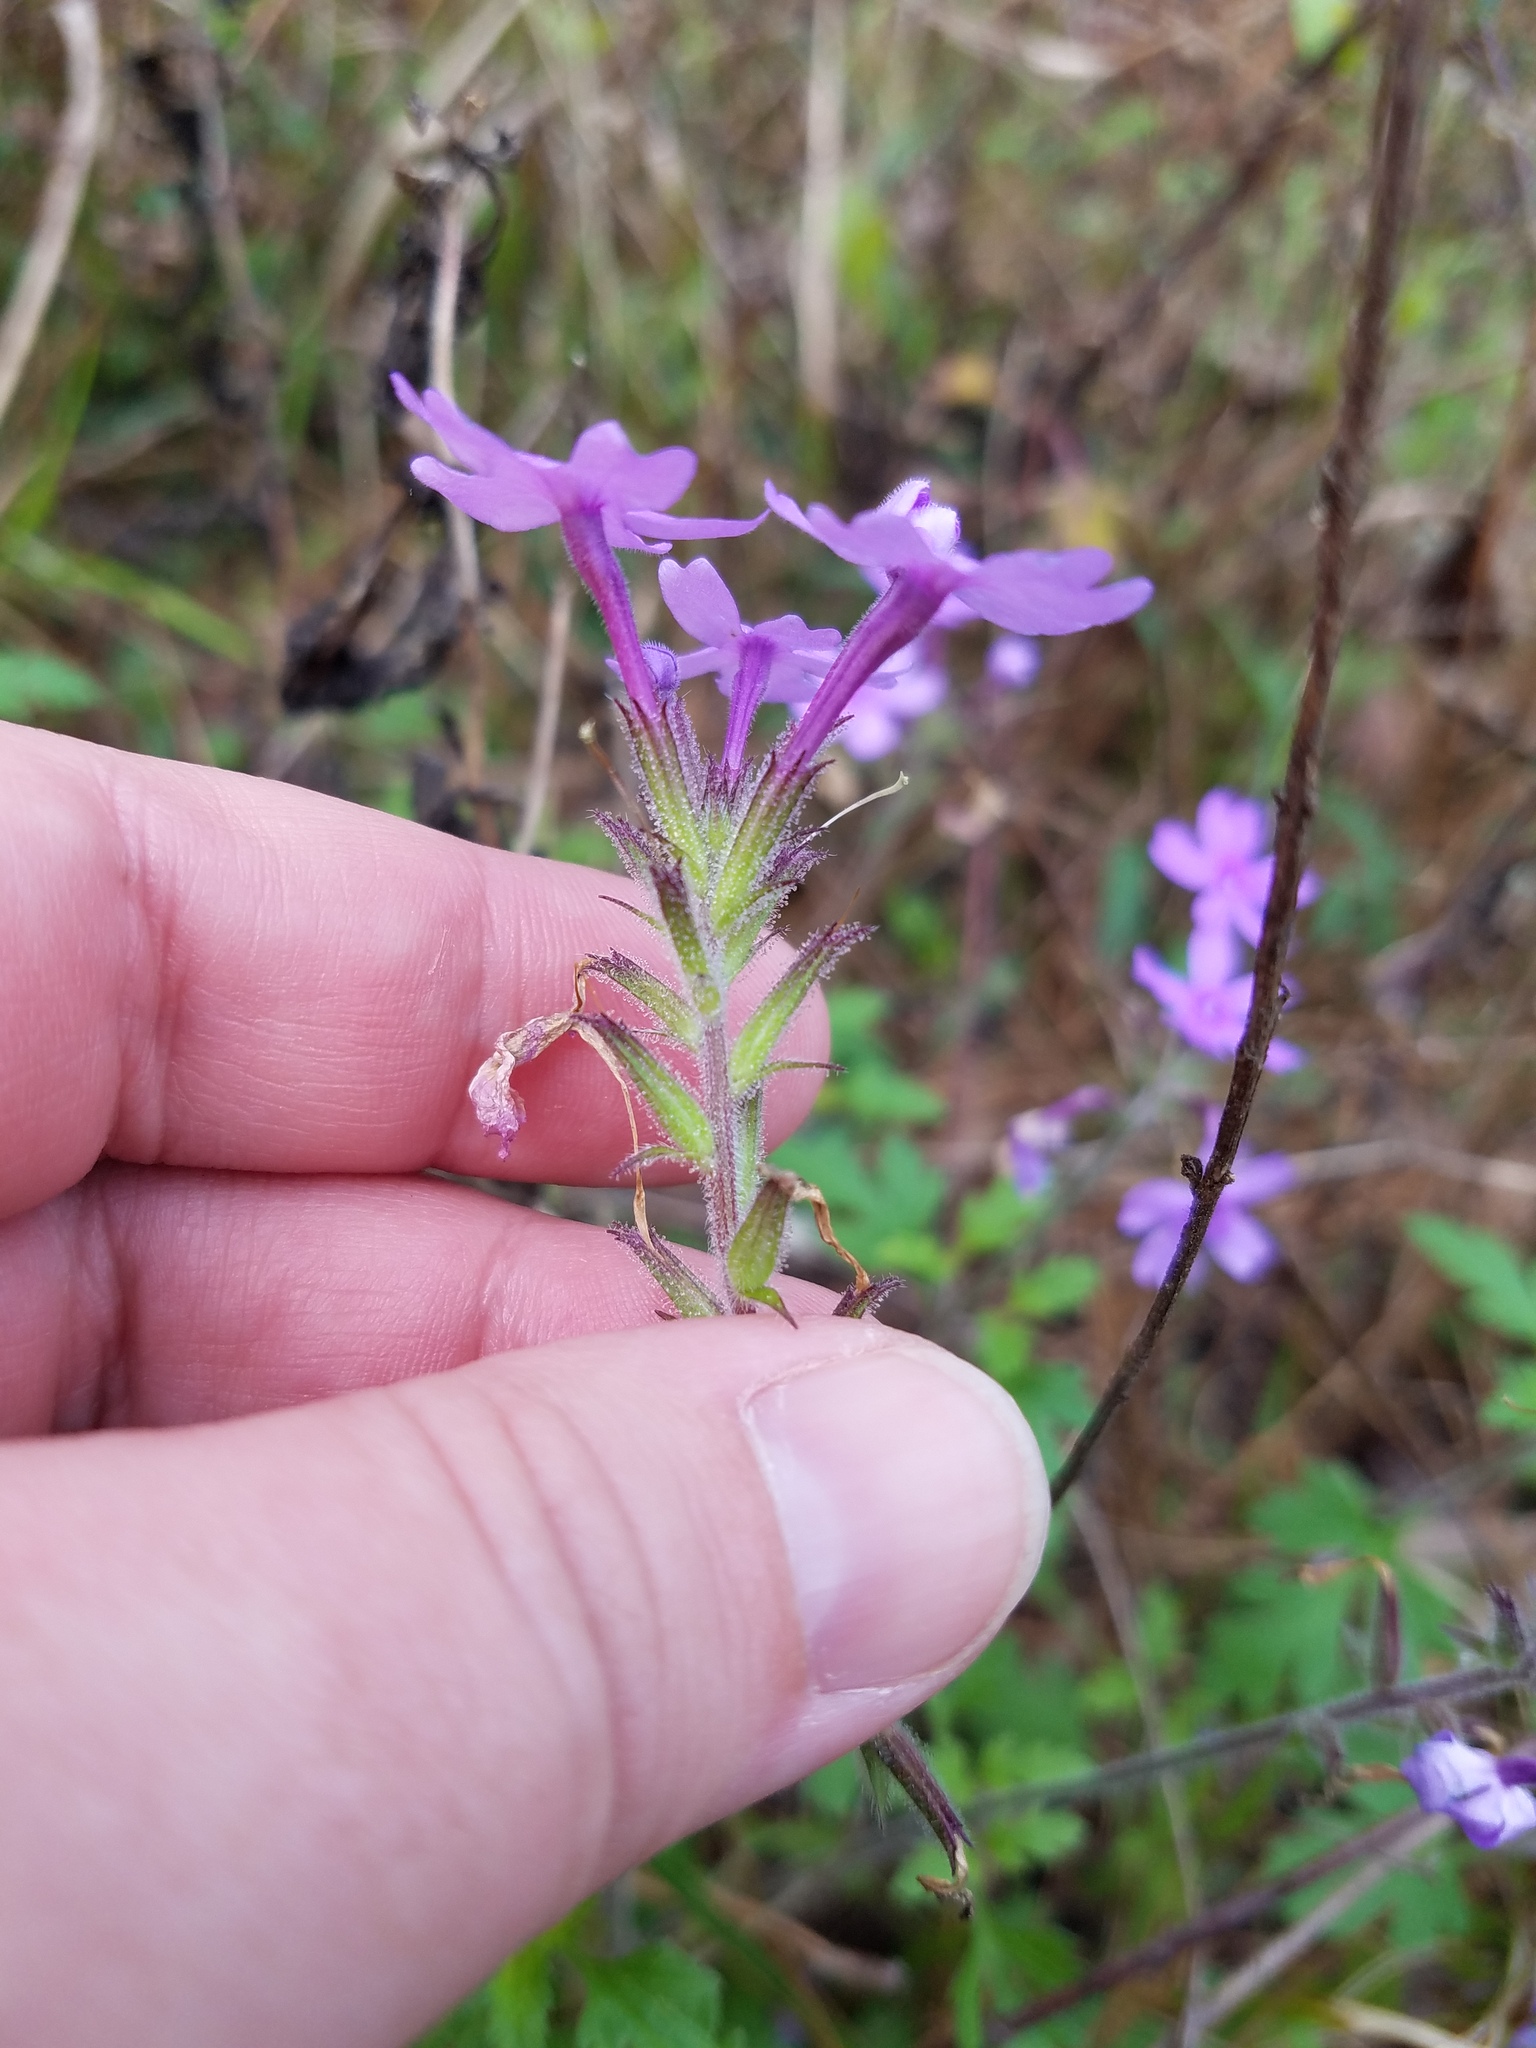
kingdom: Plantae
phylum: Tracheophyta
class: Magnoliopsida
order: Lamiales
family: Verbenaceae
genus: Verbena
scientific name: Verbena canadensis
